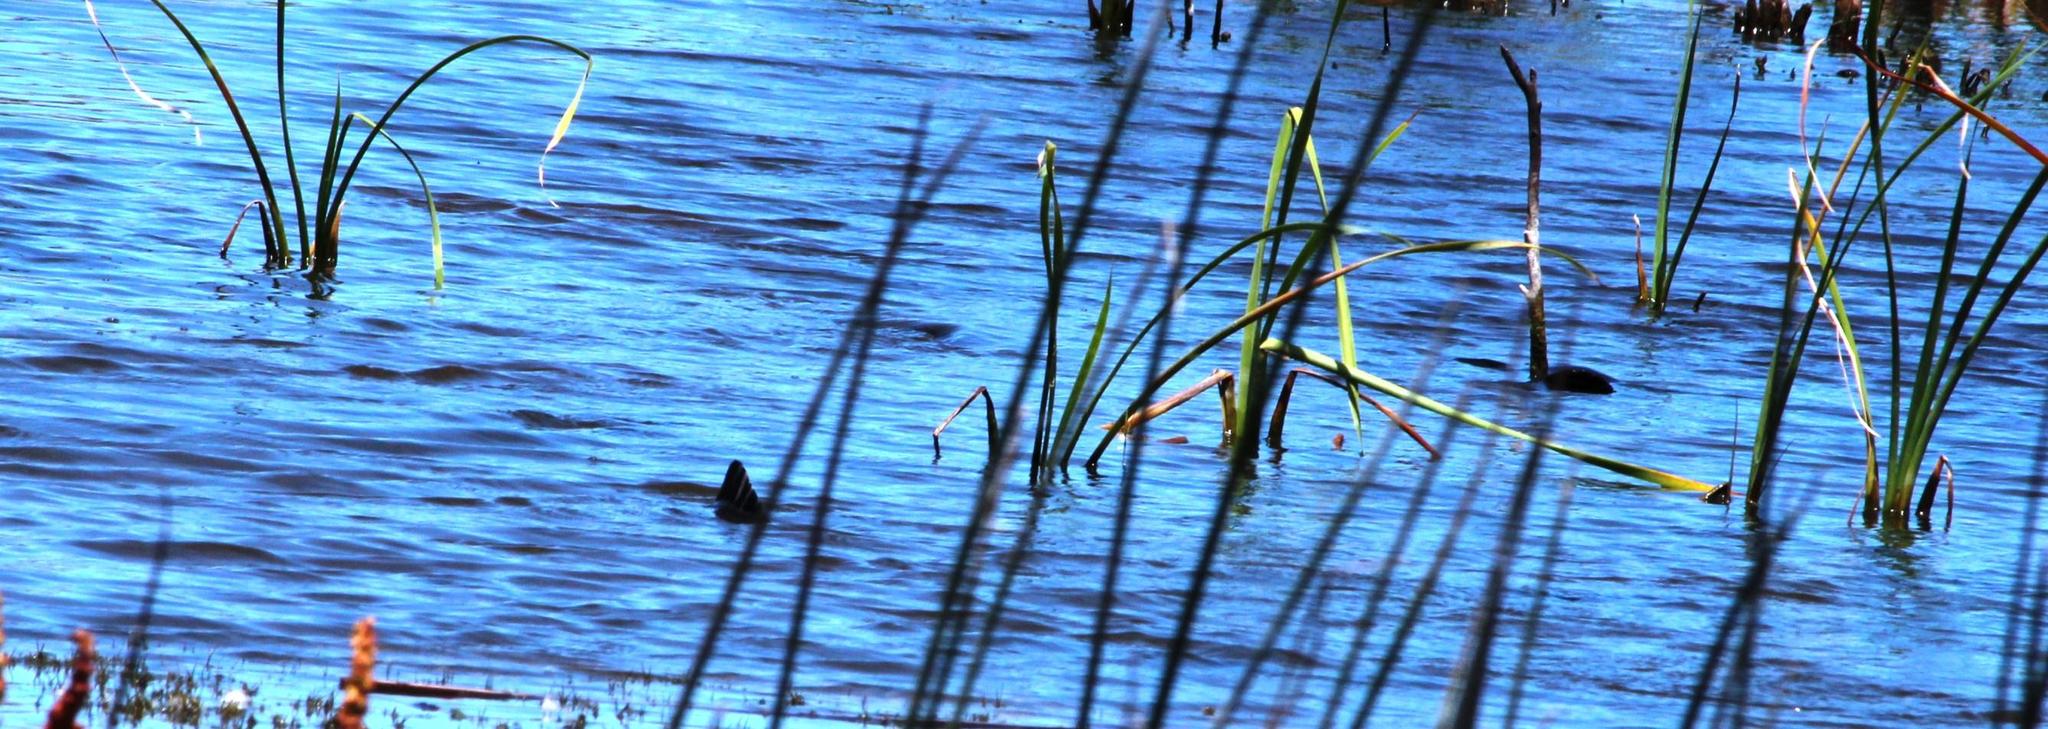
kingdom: Animalia
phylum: Chordata
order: Cypriniformes
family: Cyprinidae
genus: Cyprinus
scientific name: Cyprinus carpio
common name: Common carp
